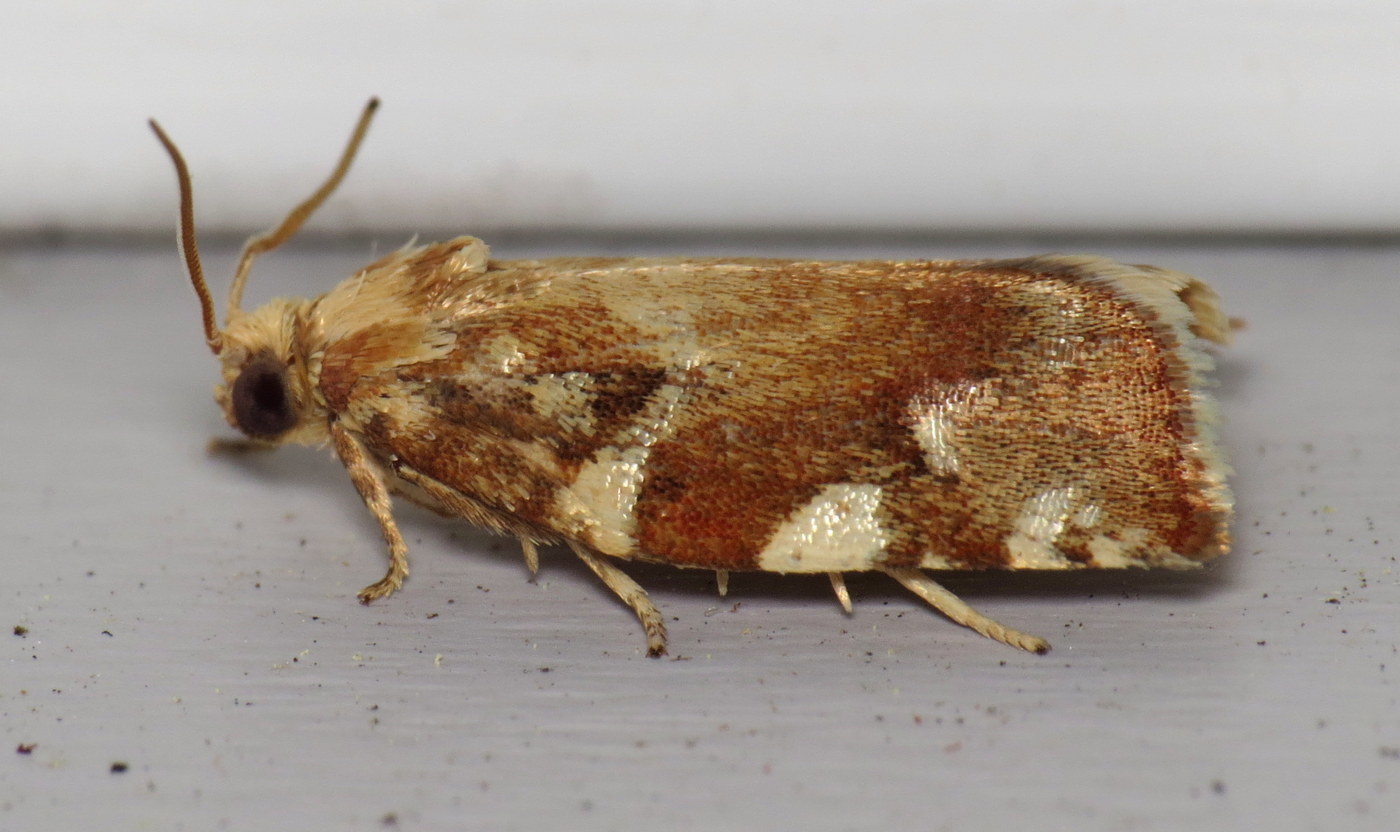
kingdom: Animalia
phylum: Arthropoda
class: Insecta
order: Lepidoptera
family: Tortricidae
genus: Archips
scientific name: Archips semiferanus
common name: Oak leafroller
